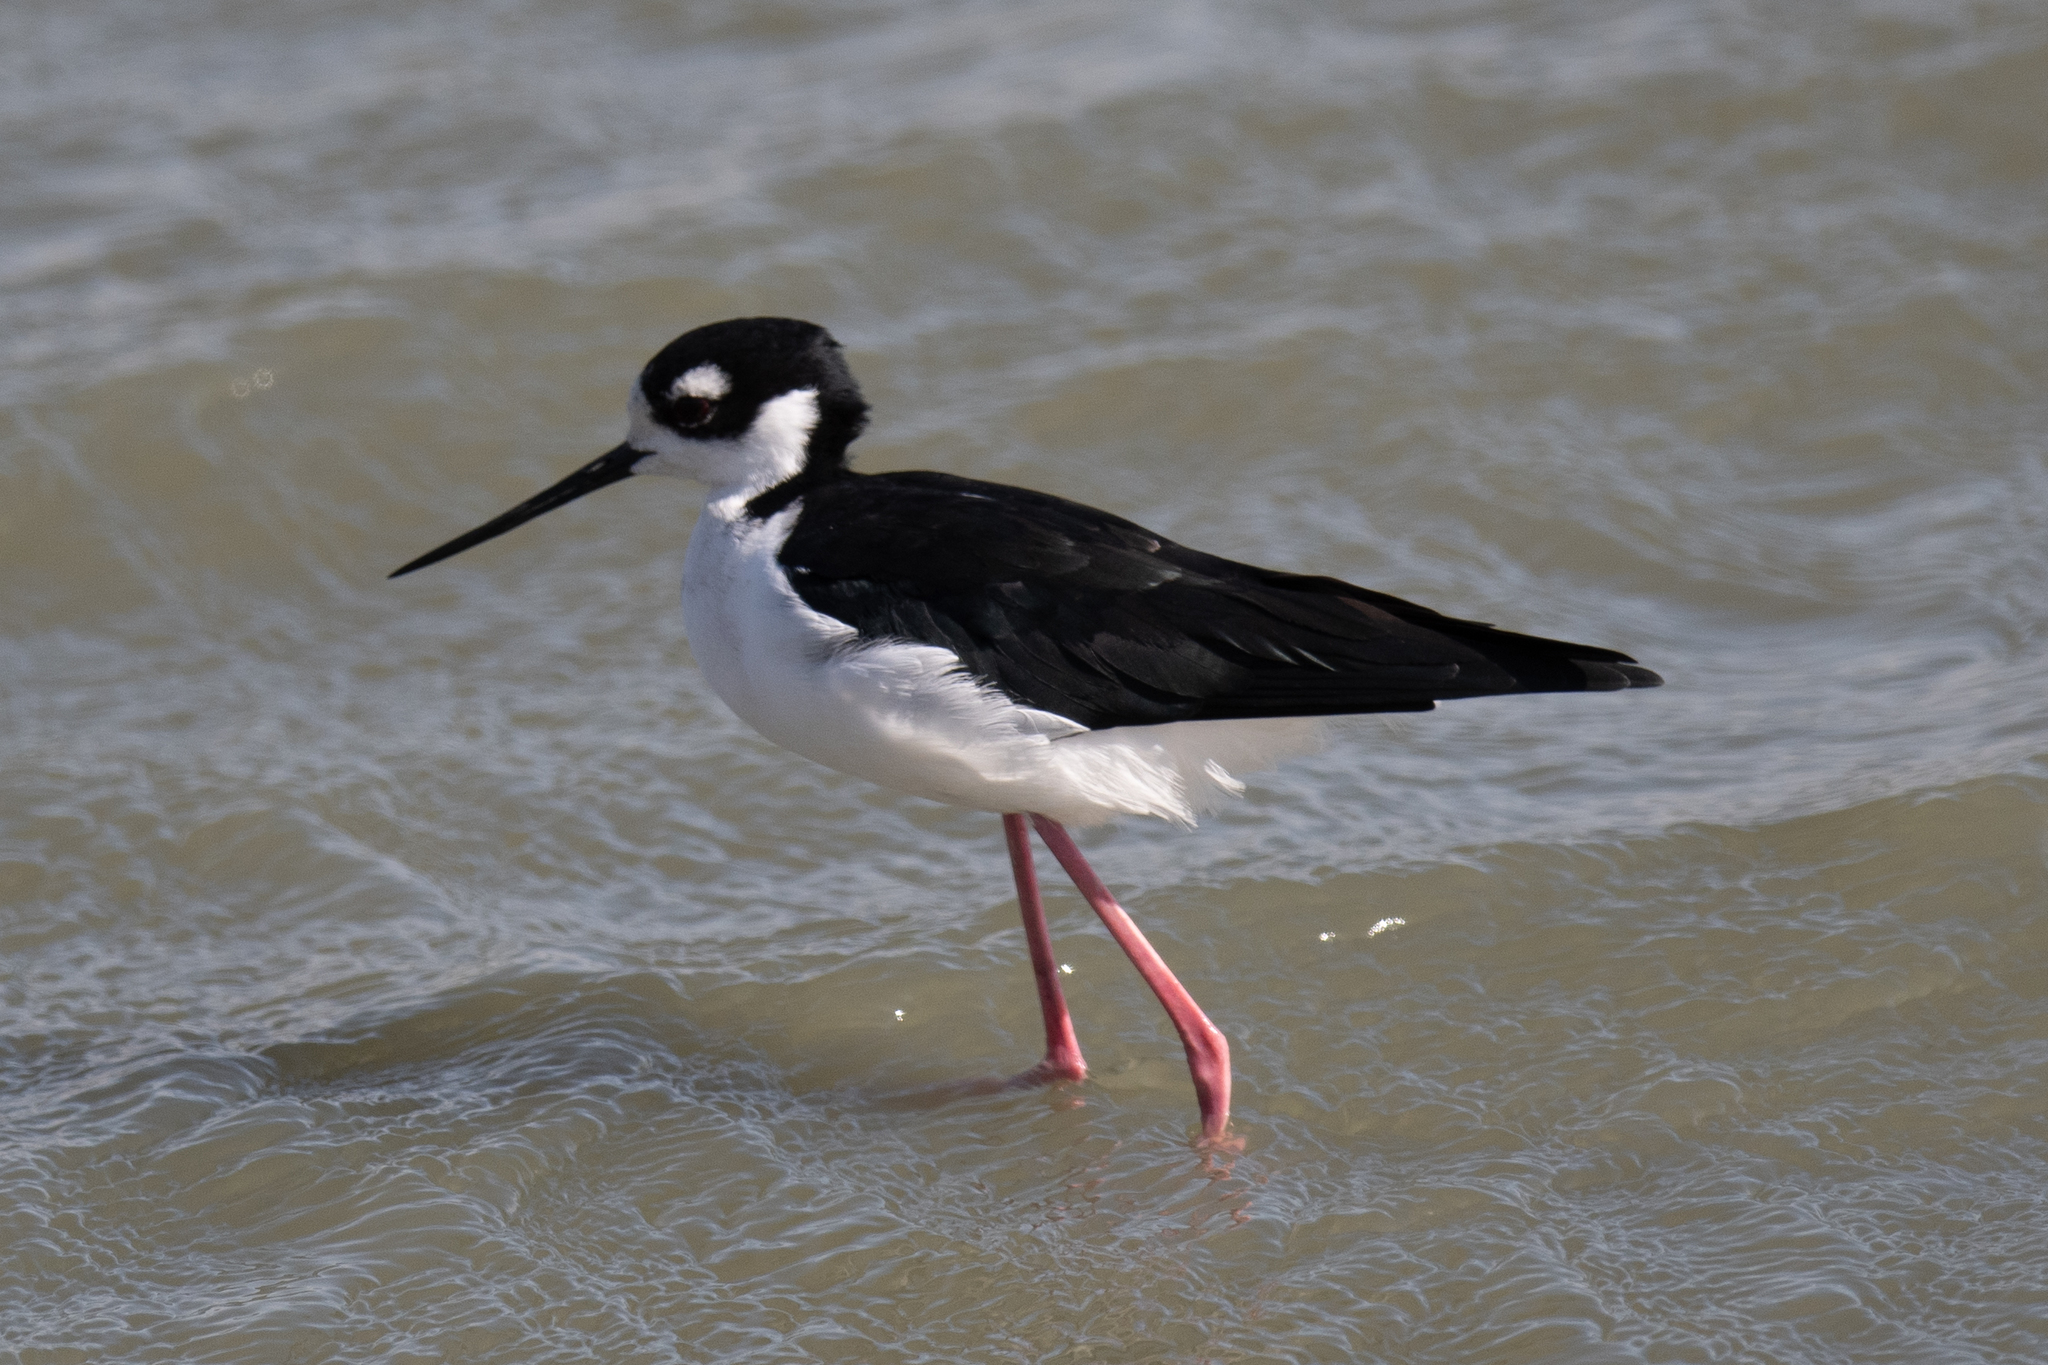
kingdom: Animalia
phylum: Chordata
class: Aves
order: Charadriiformes
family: Recurvirostridae
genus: Himantopus
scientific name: Himantopus mexicanus
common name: Black-necked stilt
